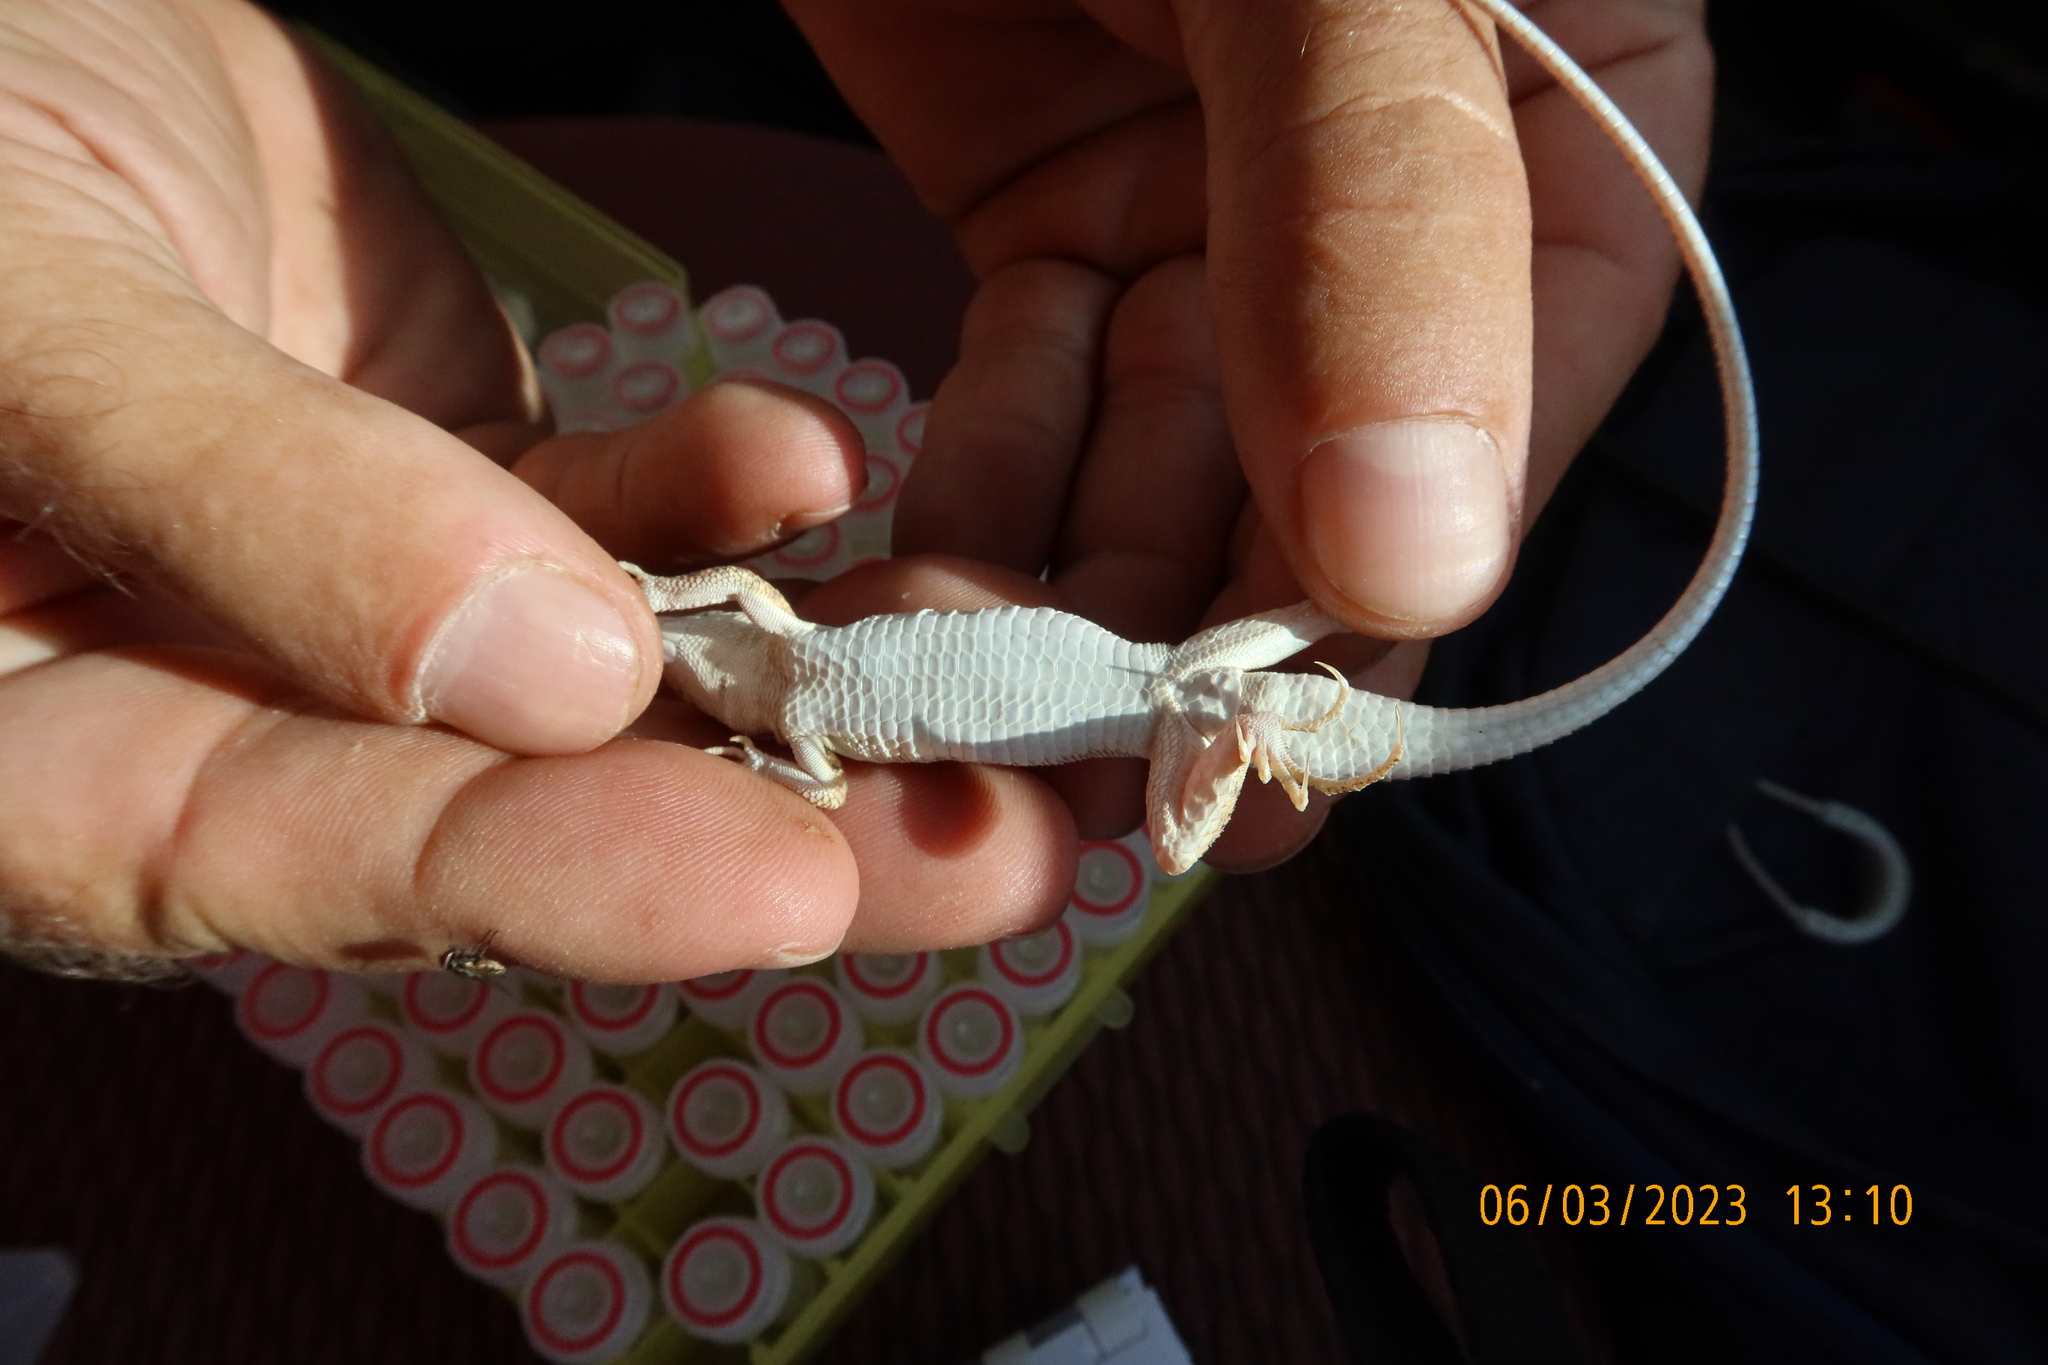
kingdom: Animalia
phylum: Chordata
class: Squamata
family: Lacertidae
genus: Acanthodactylus
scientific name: Acanthodactylus opheodurus
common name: Arnold's fringe-fingered lizard
